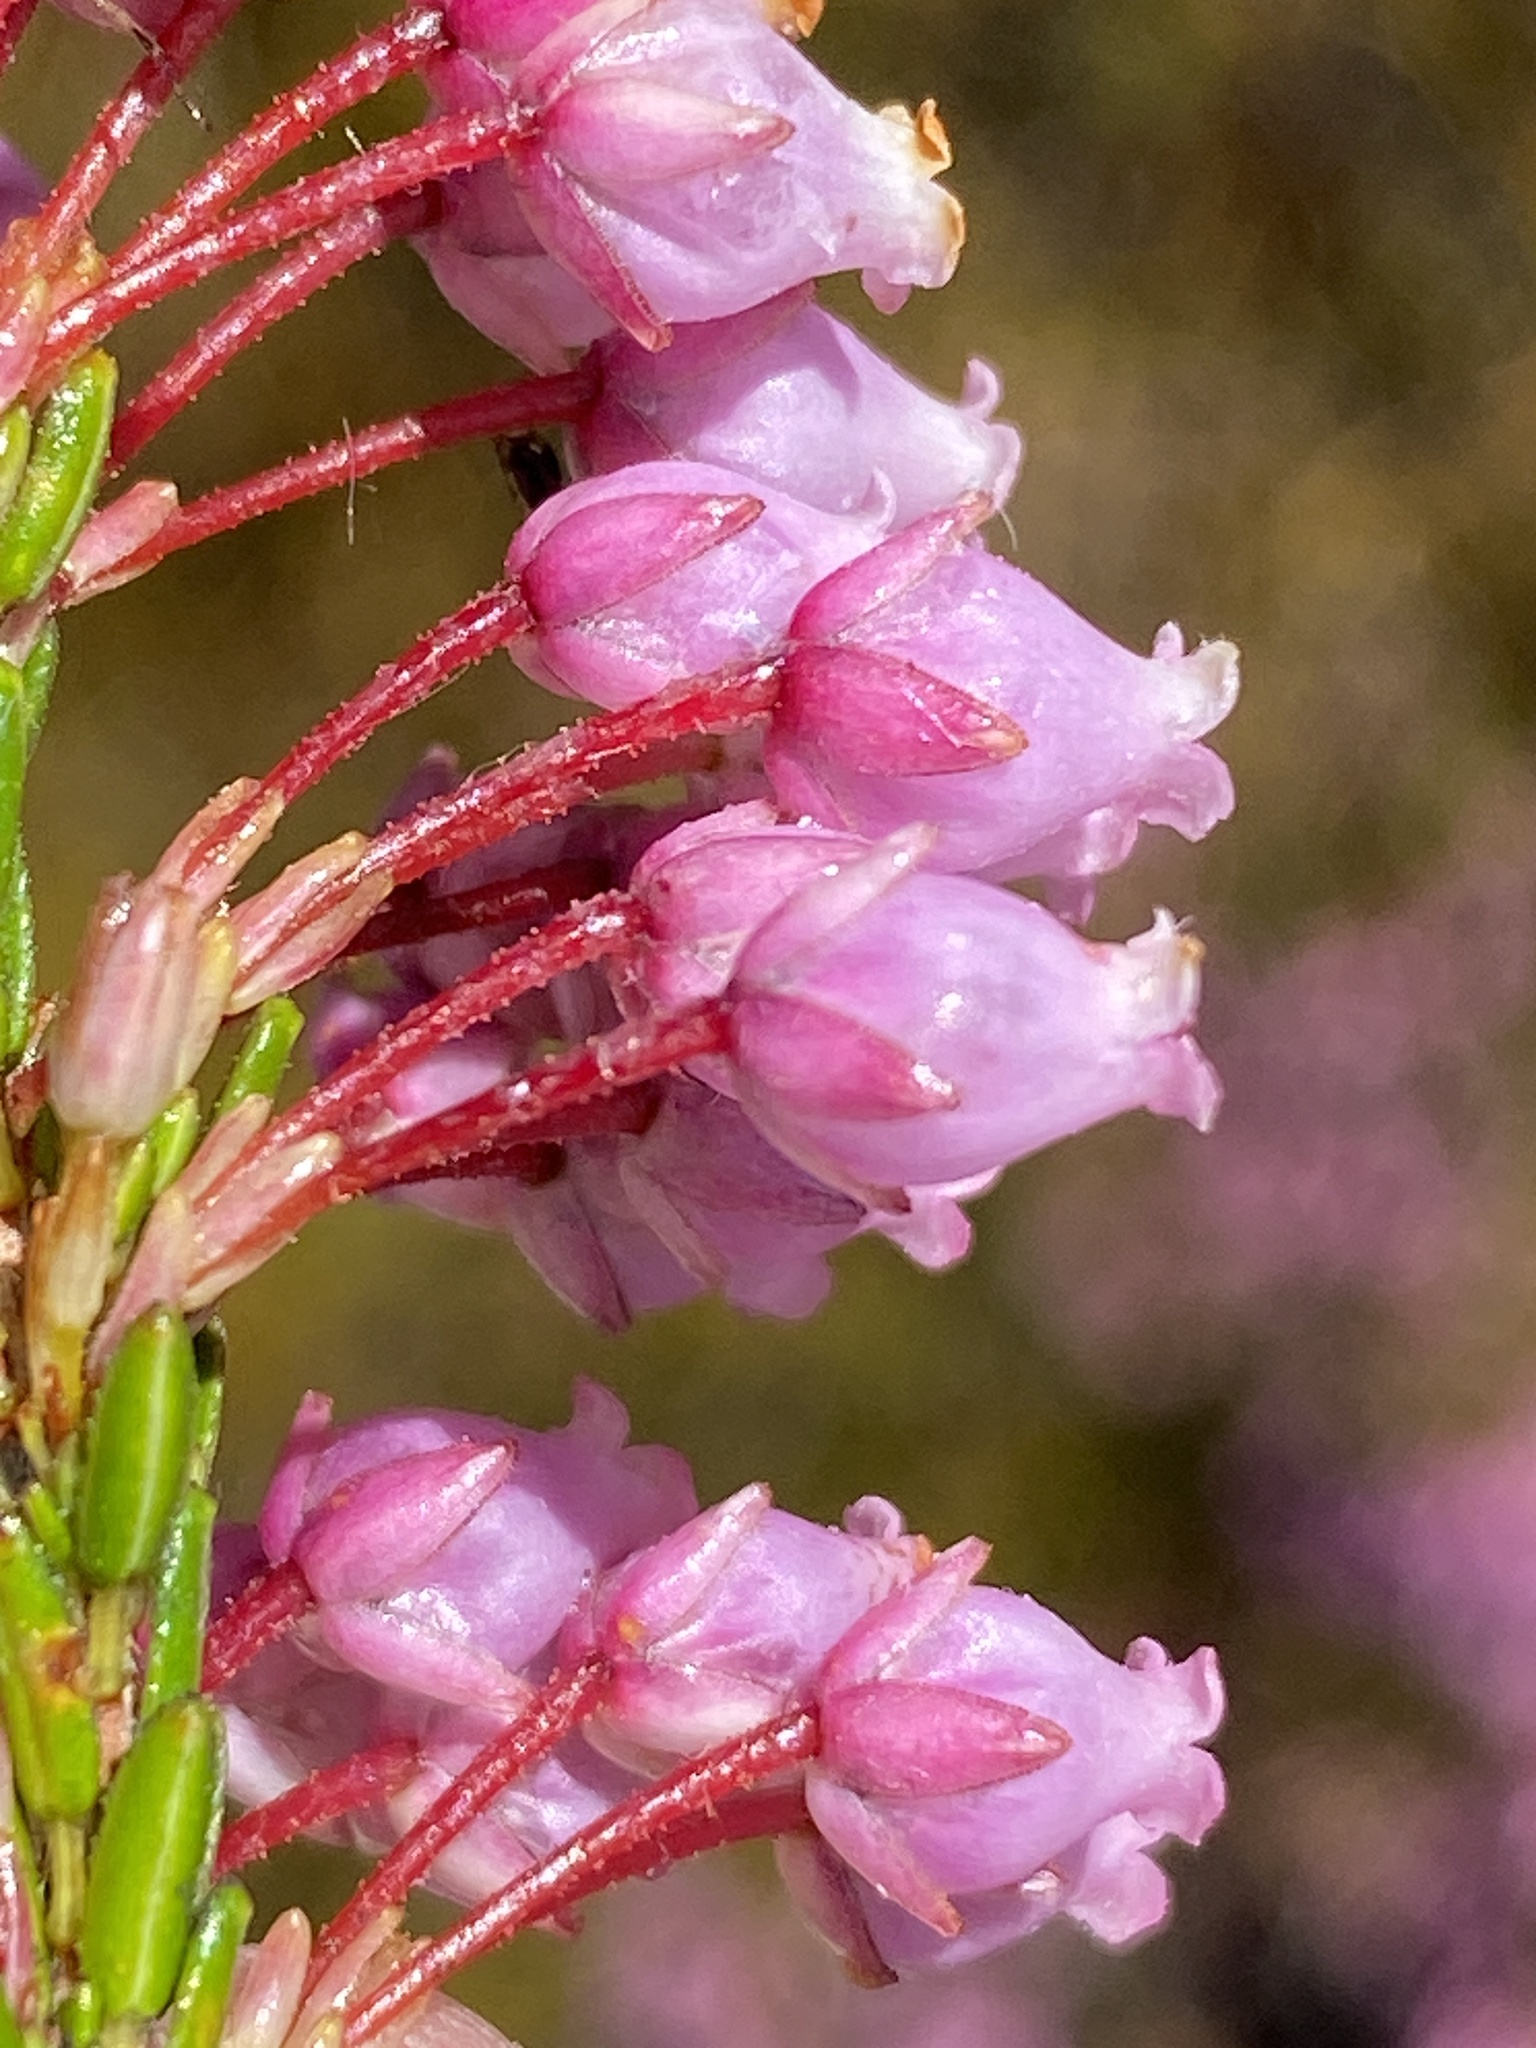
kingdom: Plantae
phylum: Tracheophyta
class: Magnoliopsida
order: Ericales
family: Ericaceae
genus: Erica
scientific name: Erica nubigena
